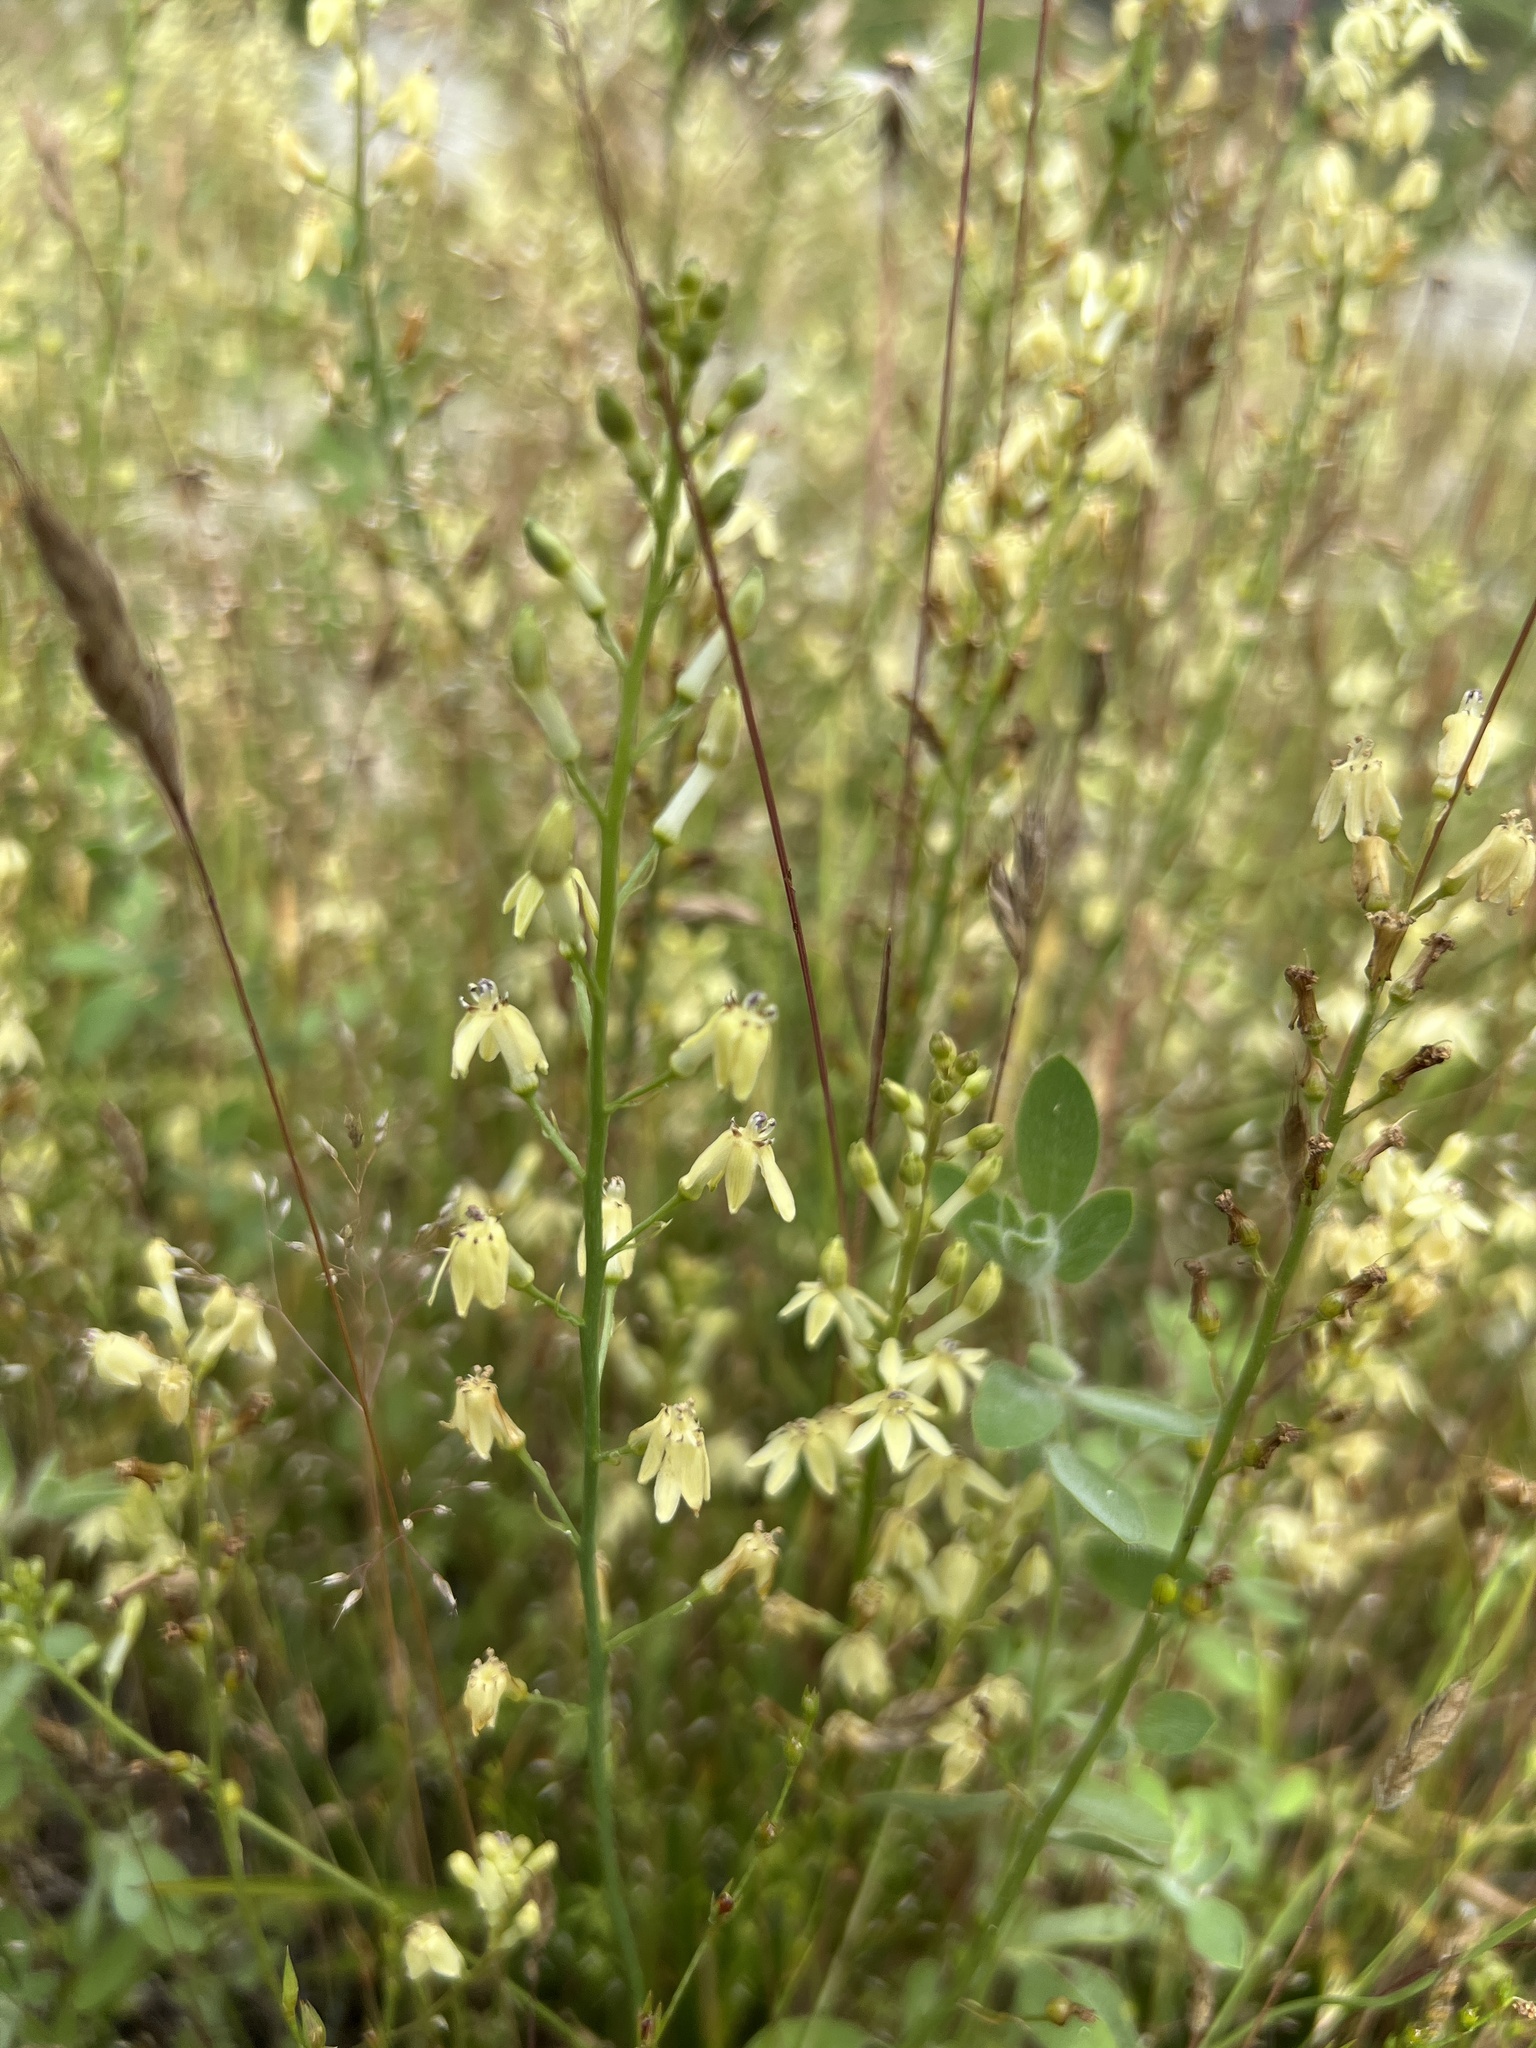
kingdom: Plantae
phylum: Tracheophyta
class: Liliopsida
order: Asparagales
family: Tecophilaeaceae
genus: Odontostomum
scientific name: Odontostomum hartwegii
